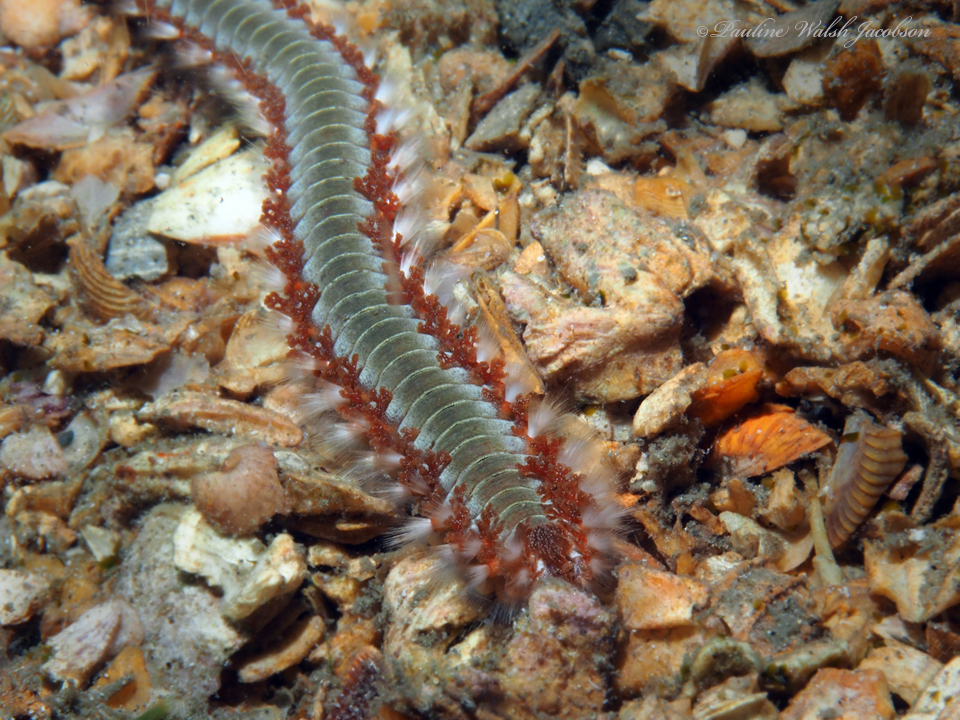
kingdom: Animalia
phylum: Annelida
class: Polychaeta
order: Amphinomida
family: Amphinomidae
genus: Hermodice
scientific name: Hermodice carunculata
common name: Bearded fireworm
